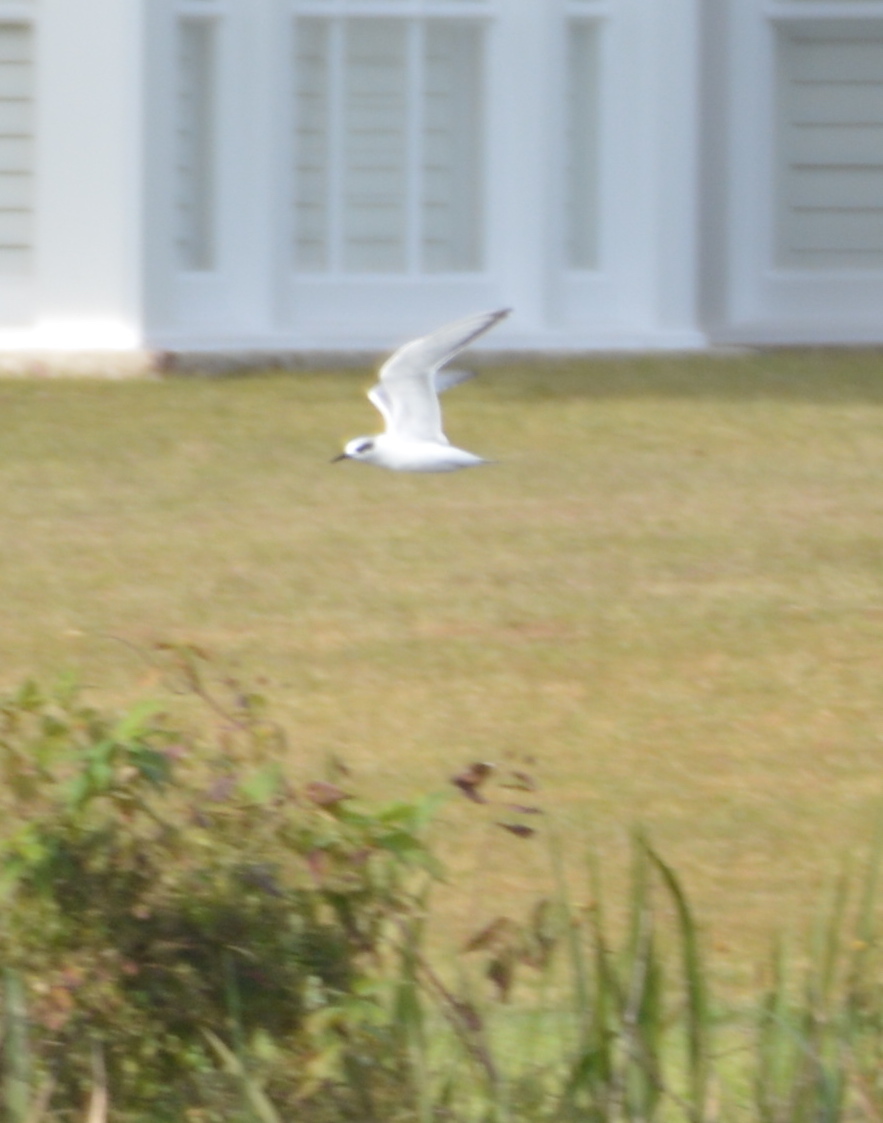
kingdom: Animalia
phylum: Chordata
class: Aves
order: Charadriiformes
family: Laridae
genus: Sterna
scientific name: Sterna forsteri
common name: Forster's tern
